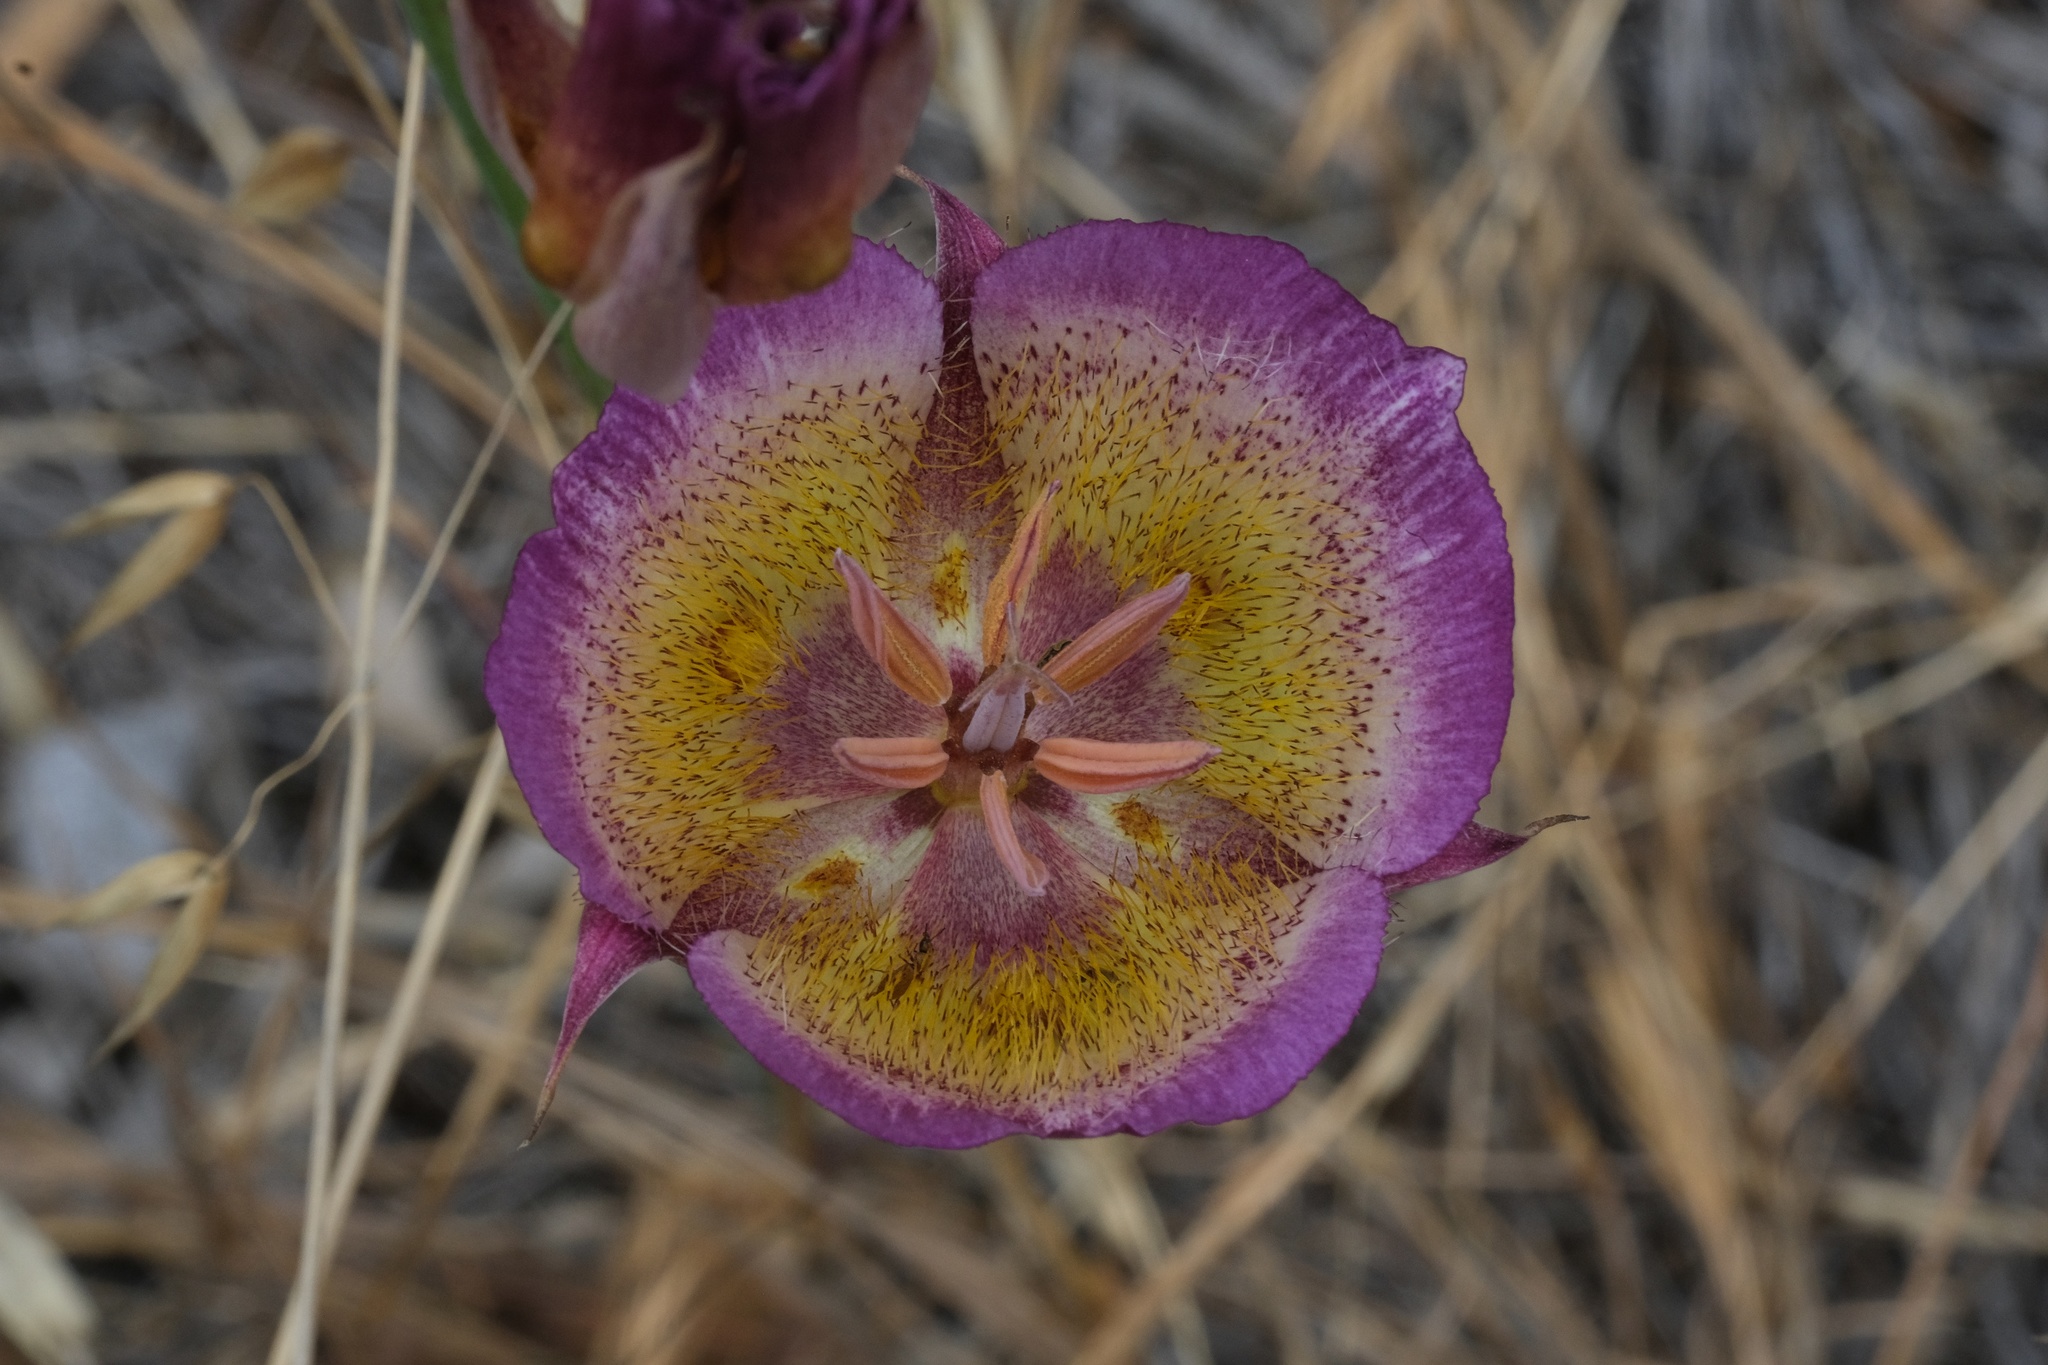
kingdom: Plantae
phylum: Tracheophyta
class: Liliopsida
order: Liliales
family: Liliaceae
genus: Calochortus
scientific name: Calochortus plummerae
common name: Plummer's mariposa-lily
